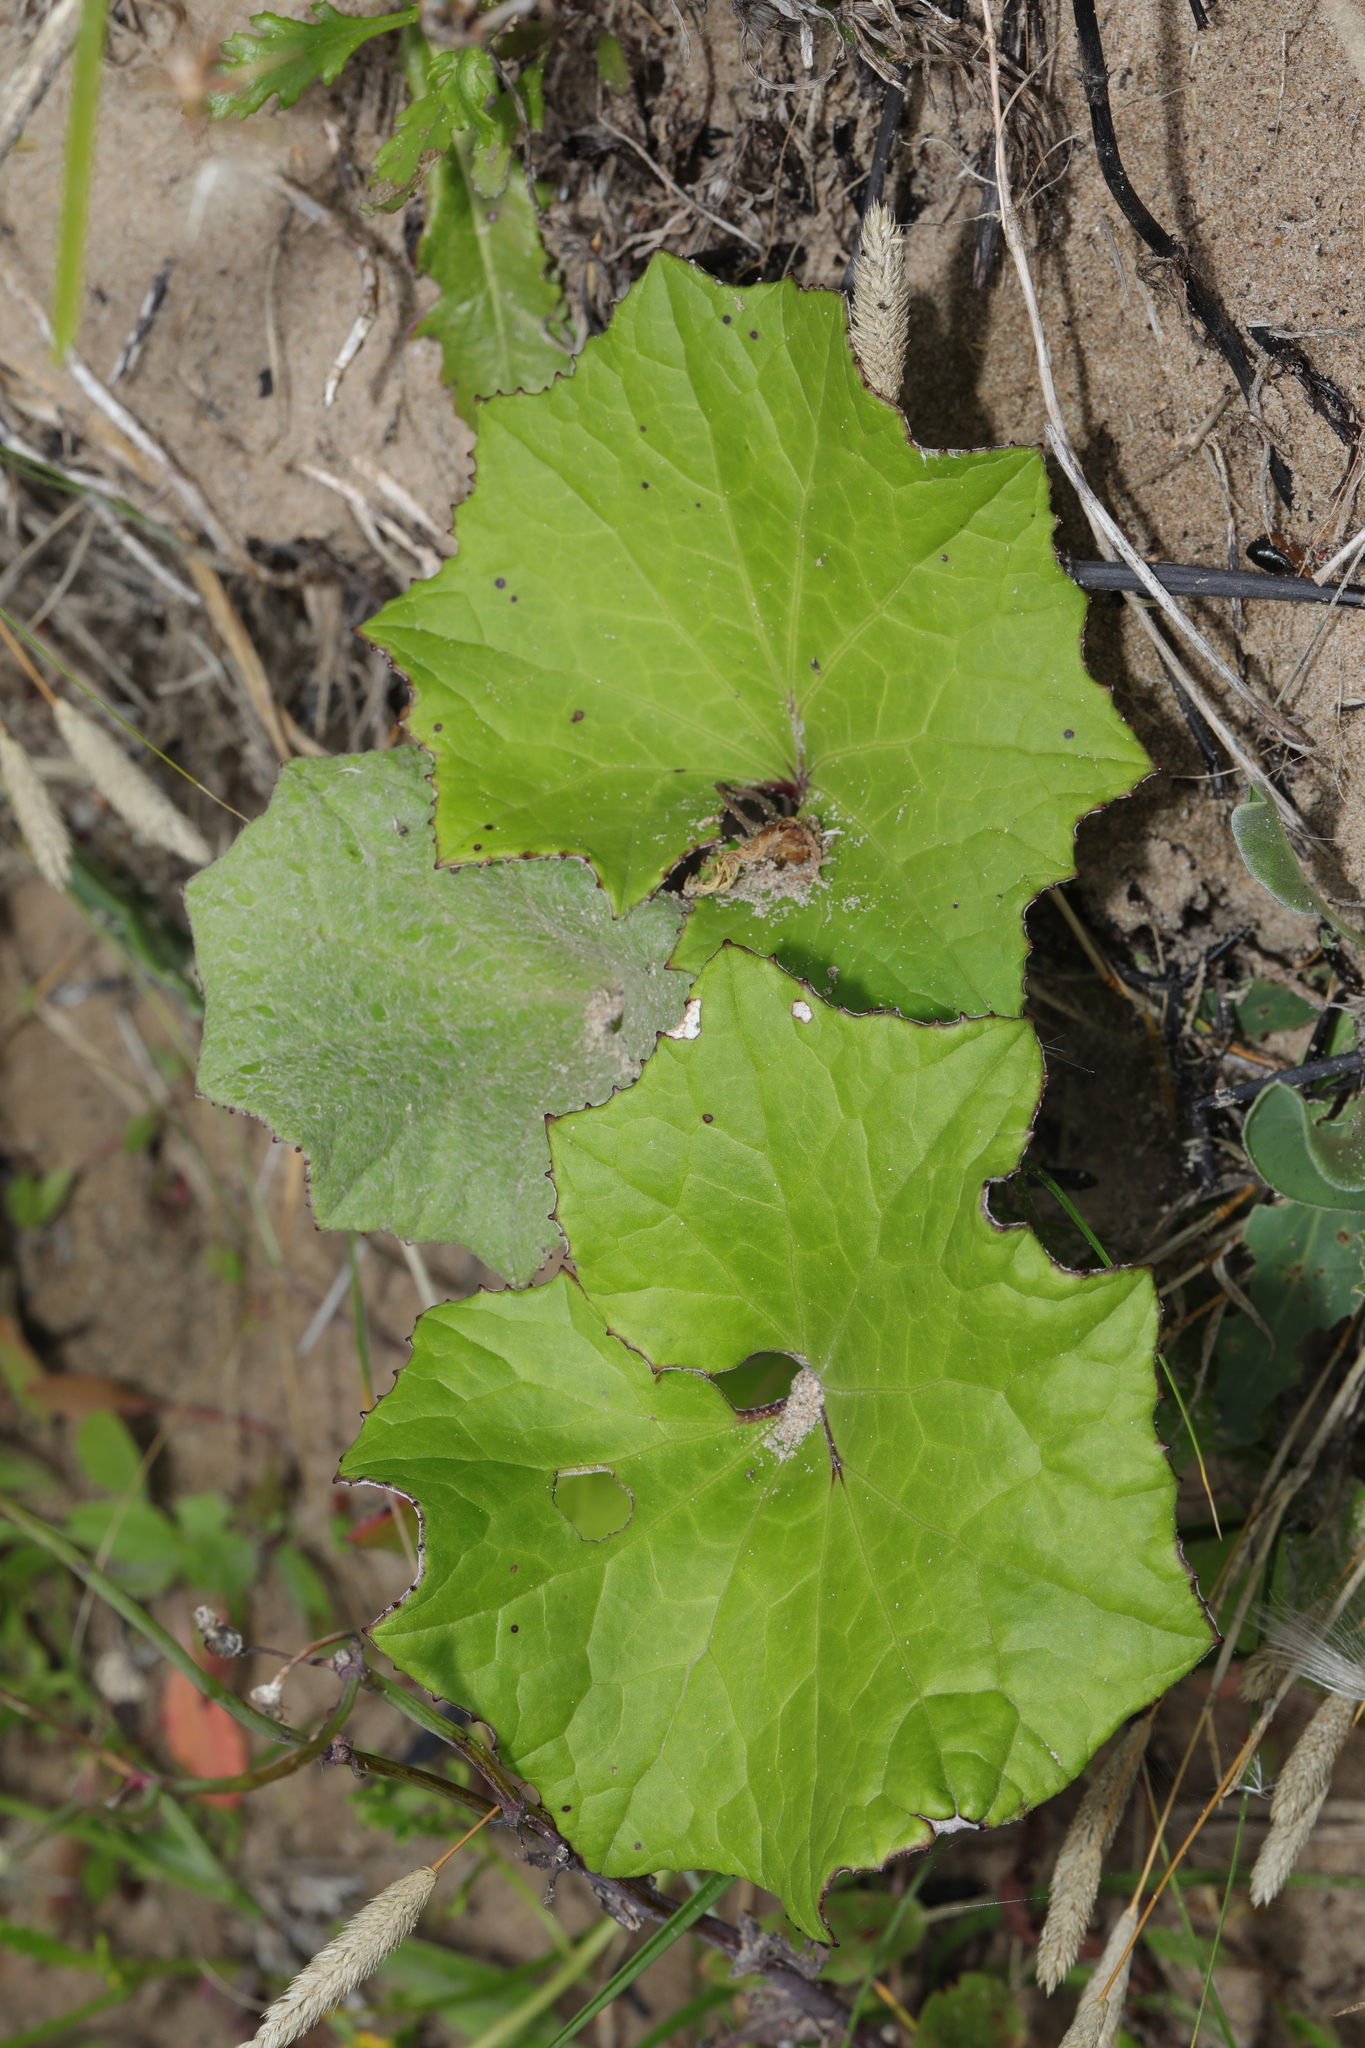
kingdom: Plantae
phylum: Tracheophyta
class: Magnoliopsida
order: Asterales
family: Asteraceae
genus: Tussilago
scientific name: Tussilago farfara
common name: Coltsfoot
